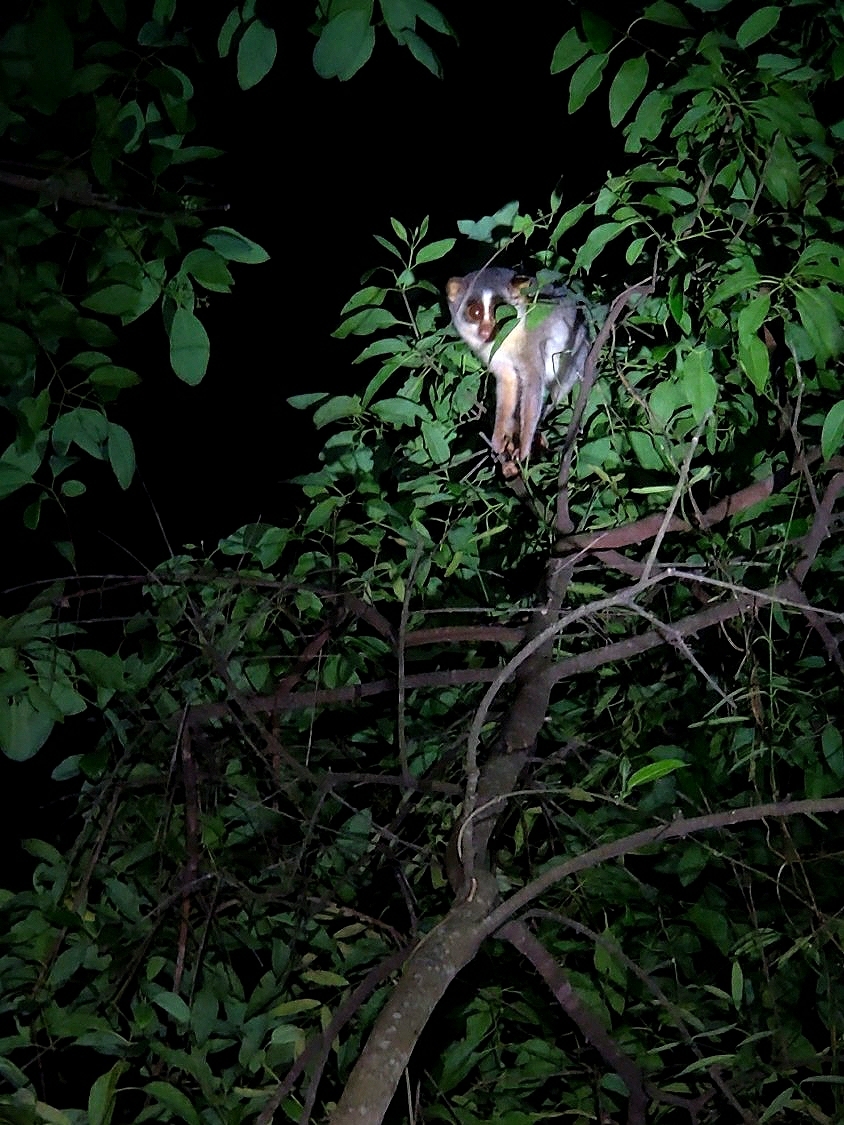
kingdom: Animalia
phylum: Chordata
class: Mammalia
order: Primates
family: Lorisidae
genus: Loris
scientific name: Loris lydekkerianus
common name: Gray slender loris
